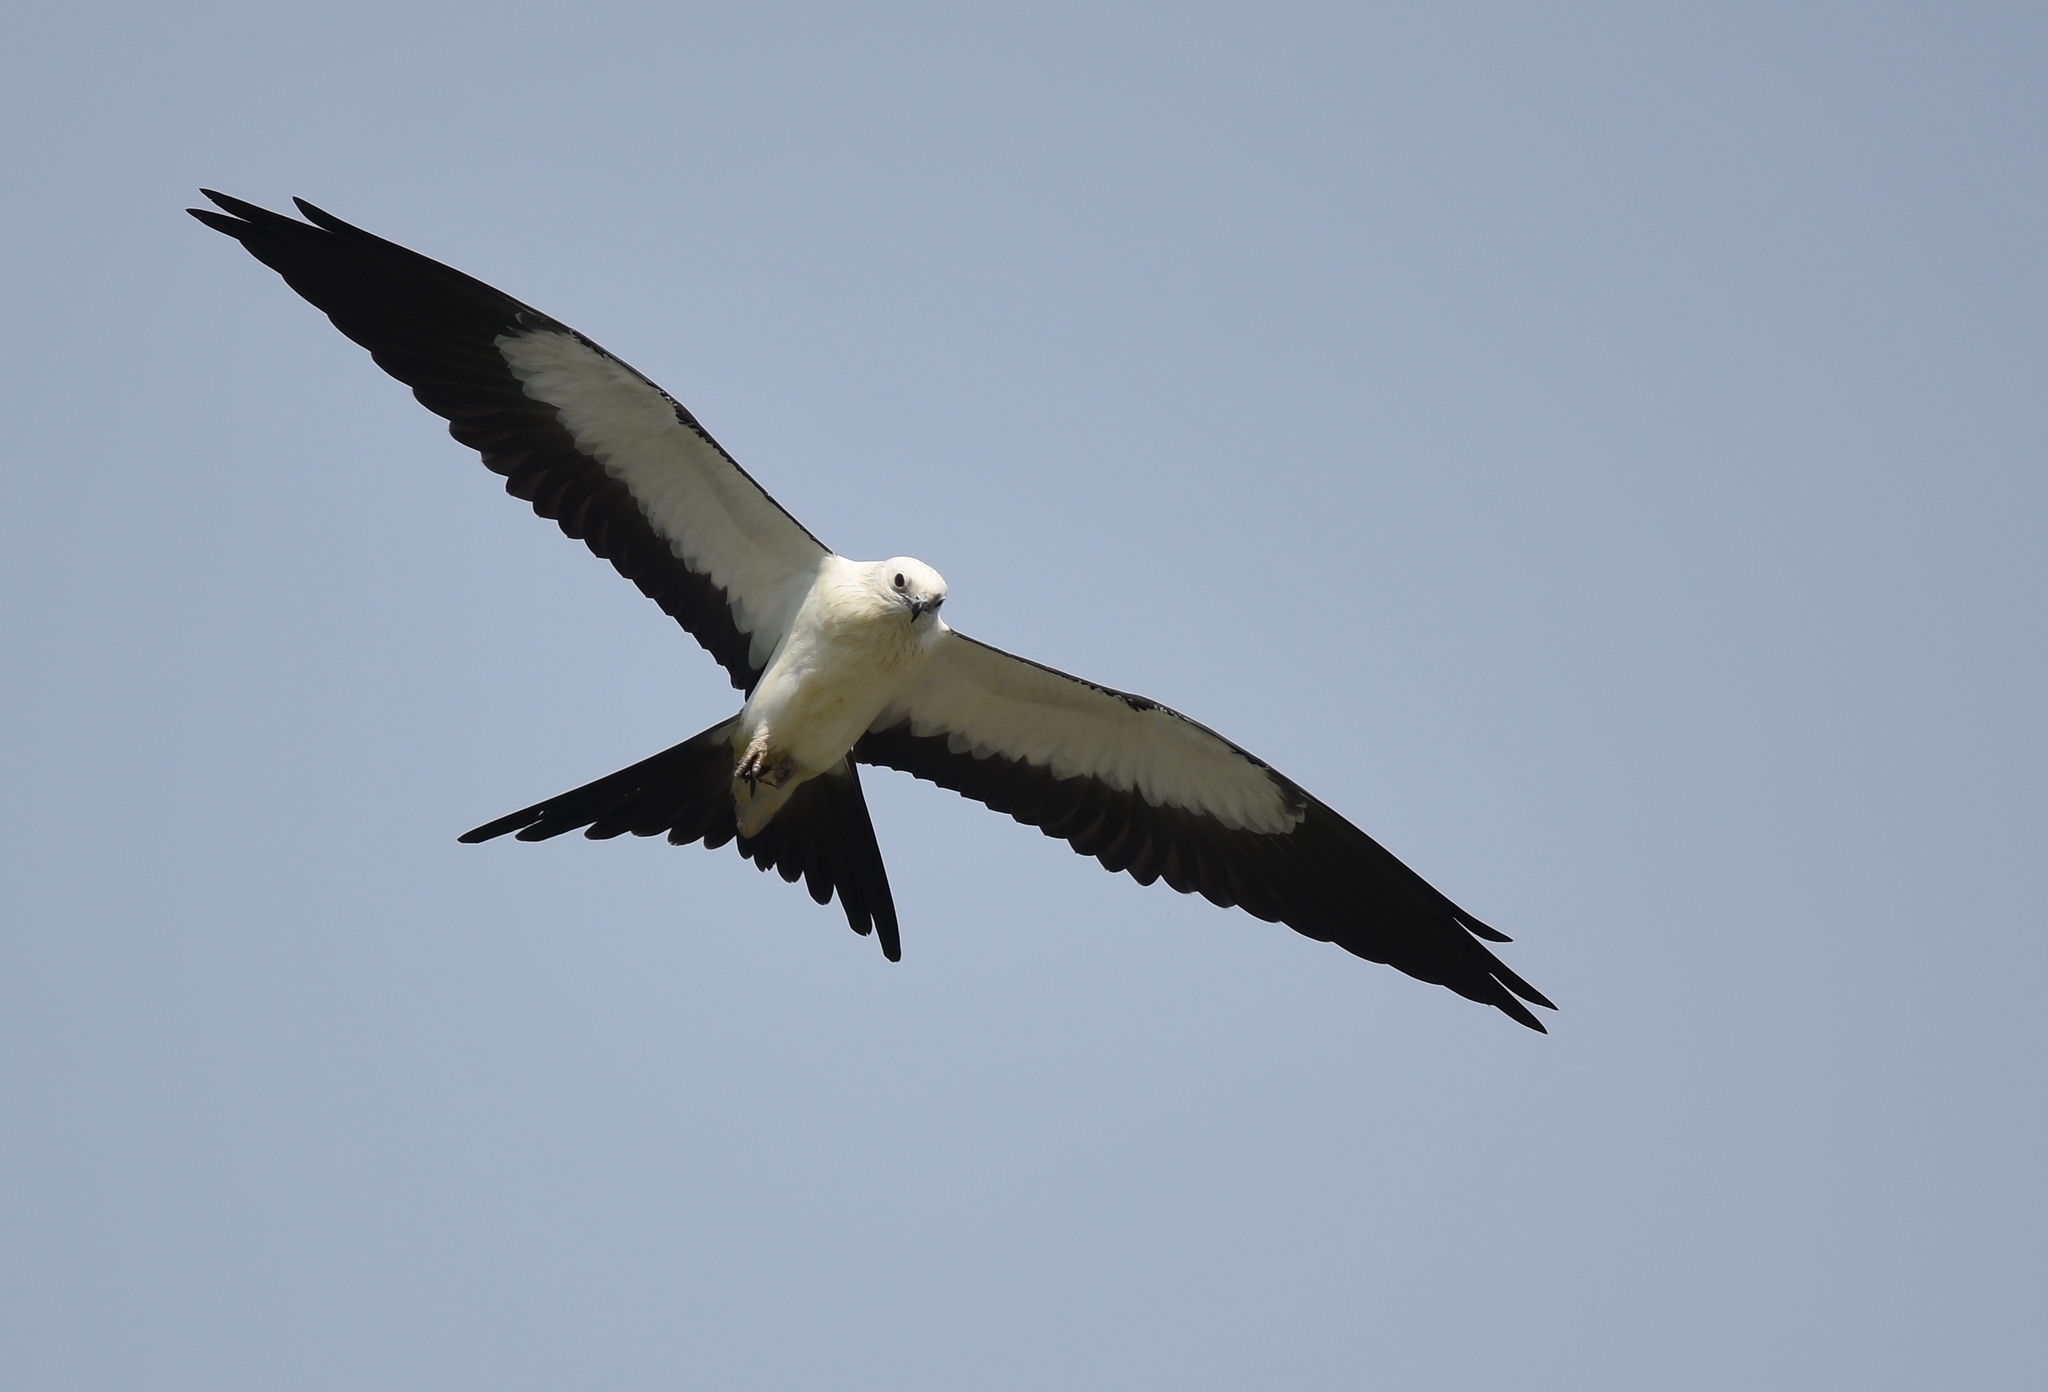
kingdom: Animalia
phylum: Chordata
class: Aves
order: Accipitriformes
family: Accipitridae
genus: Elanoides
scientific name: Elanoides forficatus
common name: Swallow-tailed kite
